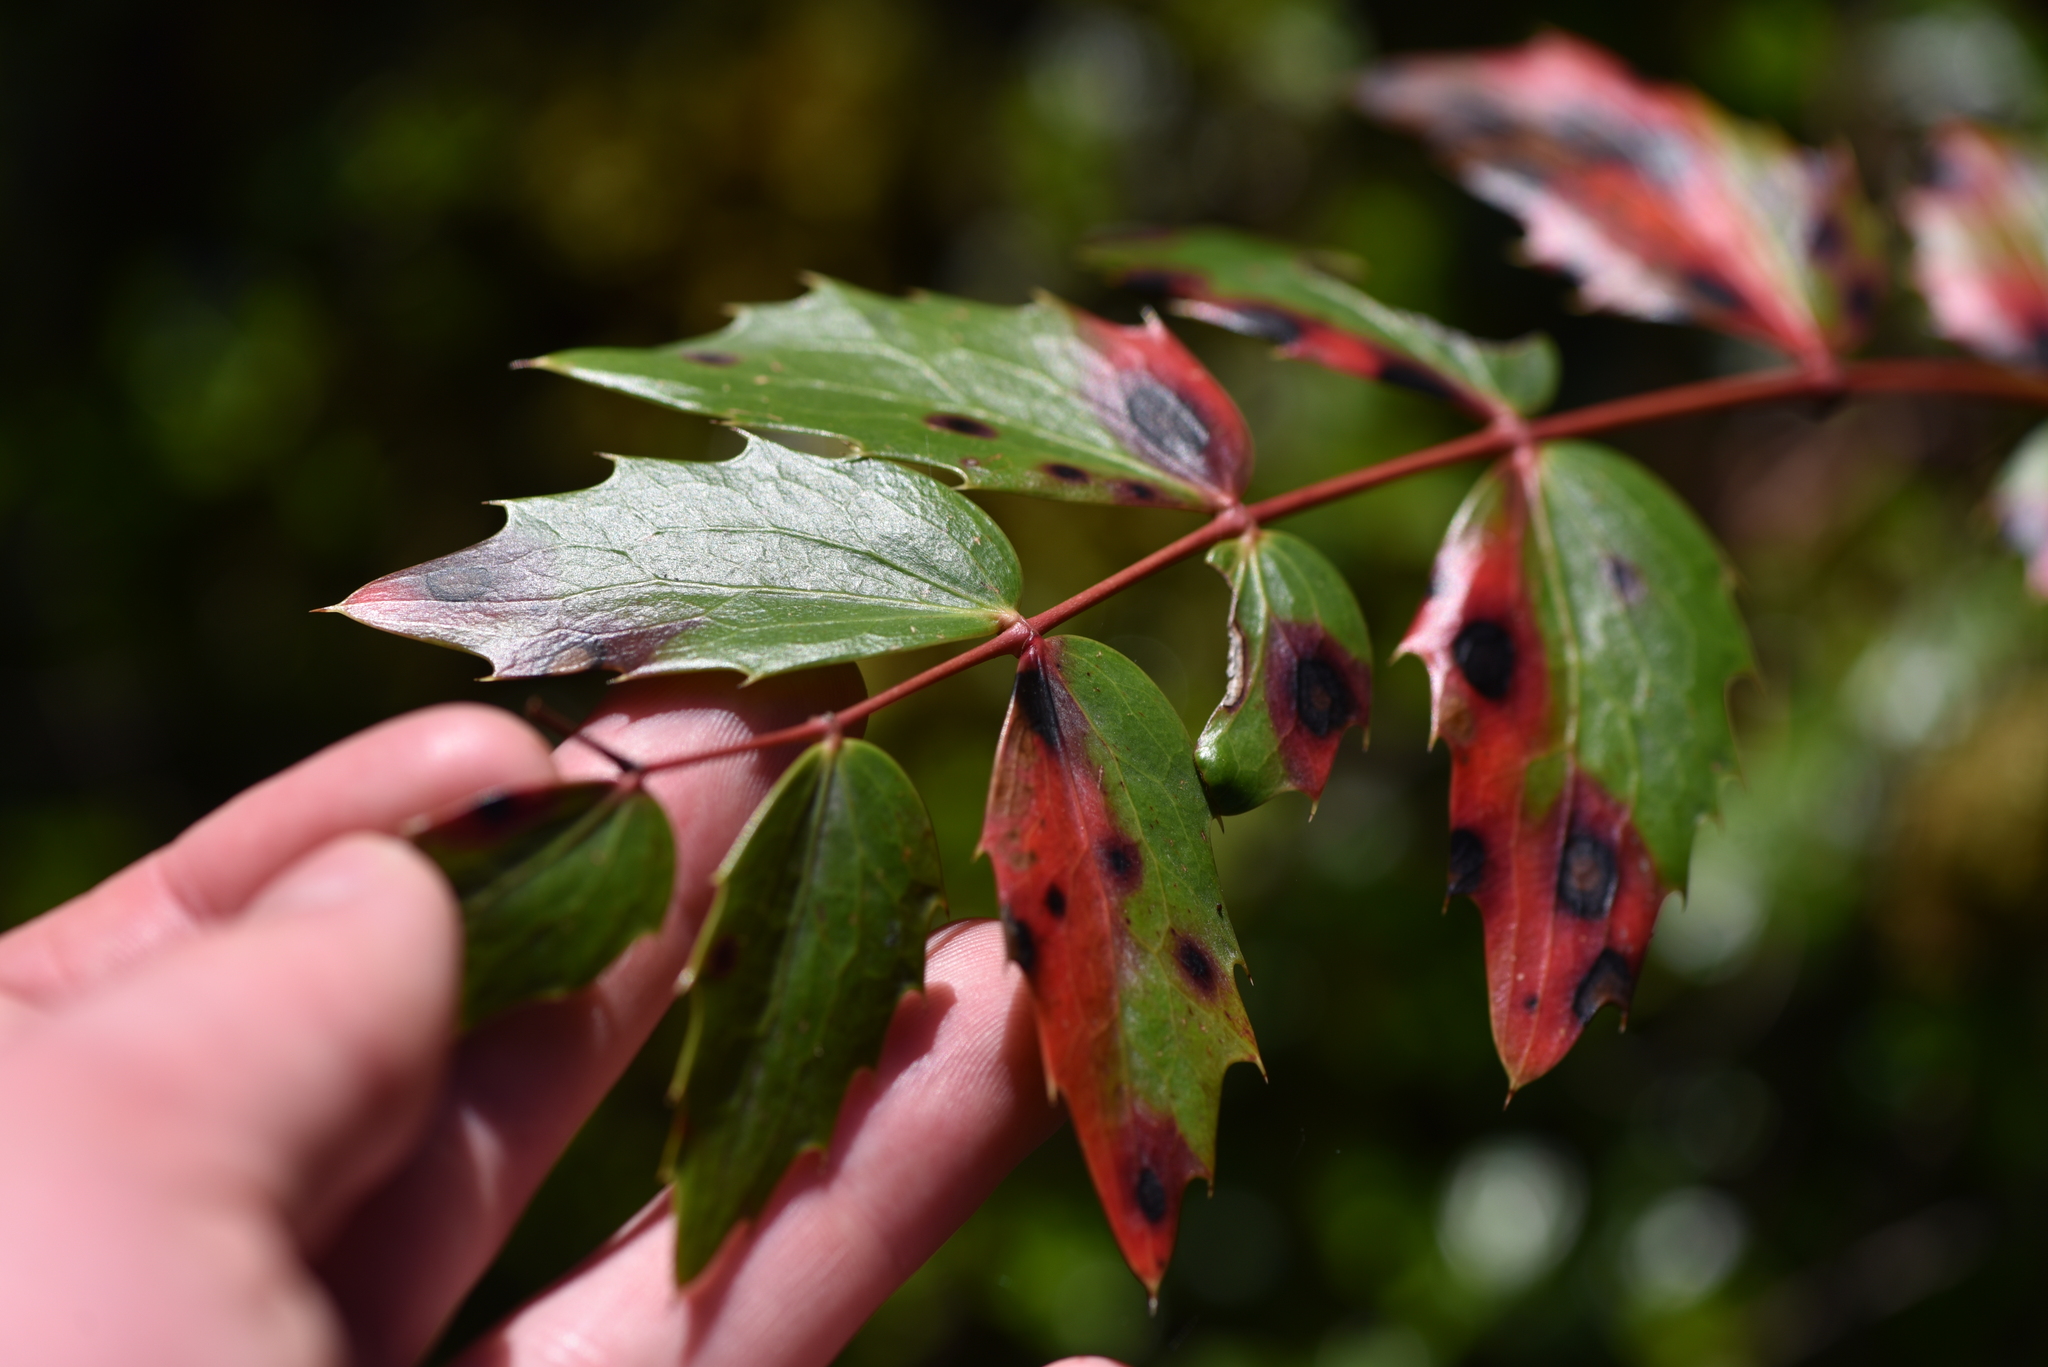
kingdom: Plantae
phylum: Tracheophyta
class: Magnoliopsida
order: Ranunculales
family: Berberidaceae
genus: Mahonia
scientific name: Mahonia nervosa
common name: Cascade oregon-grape
